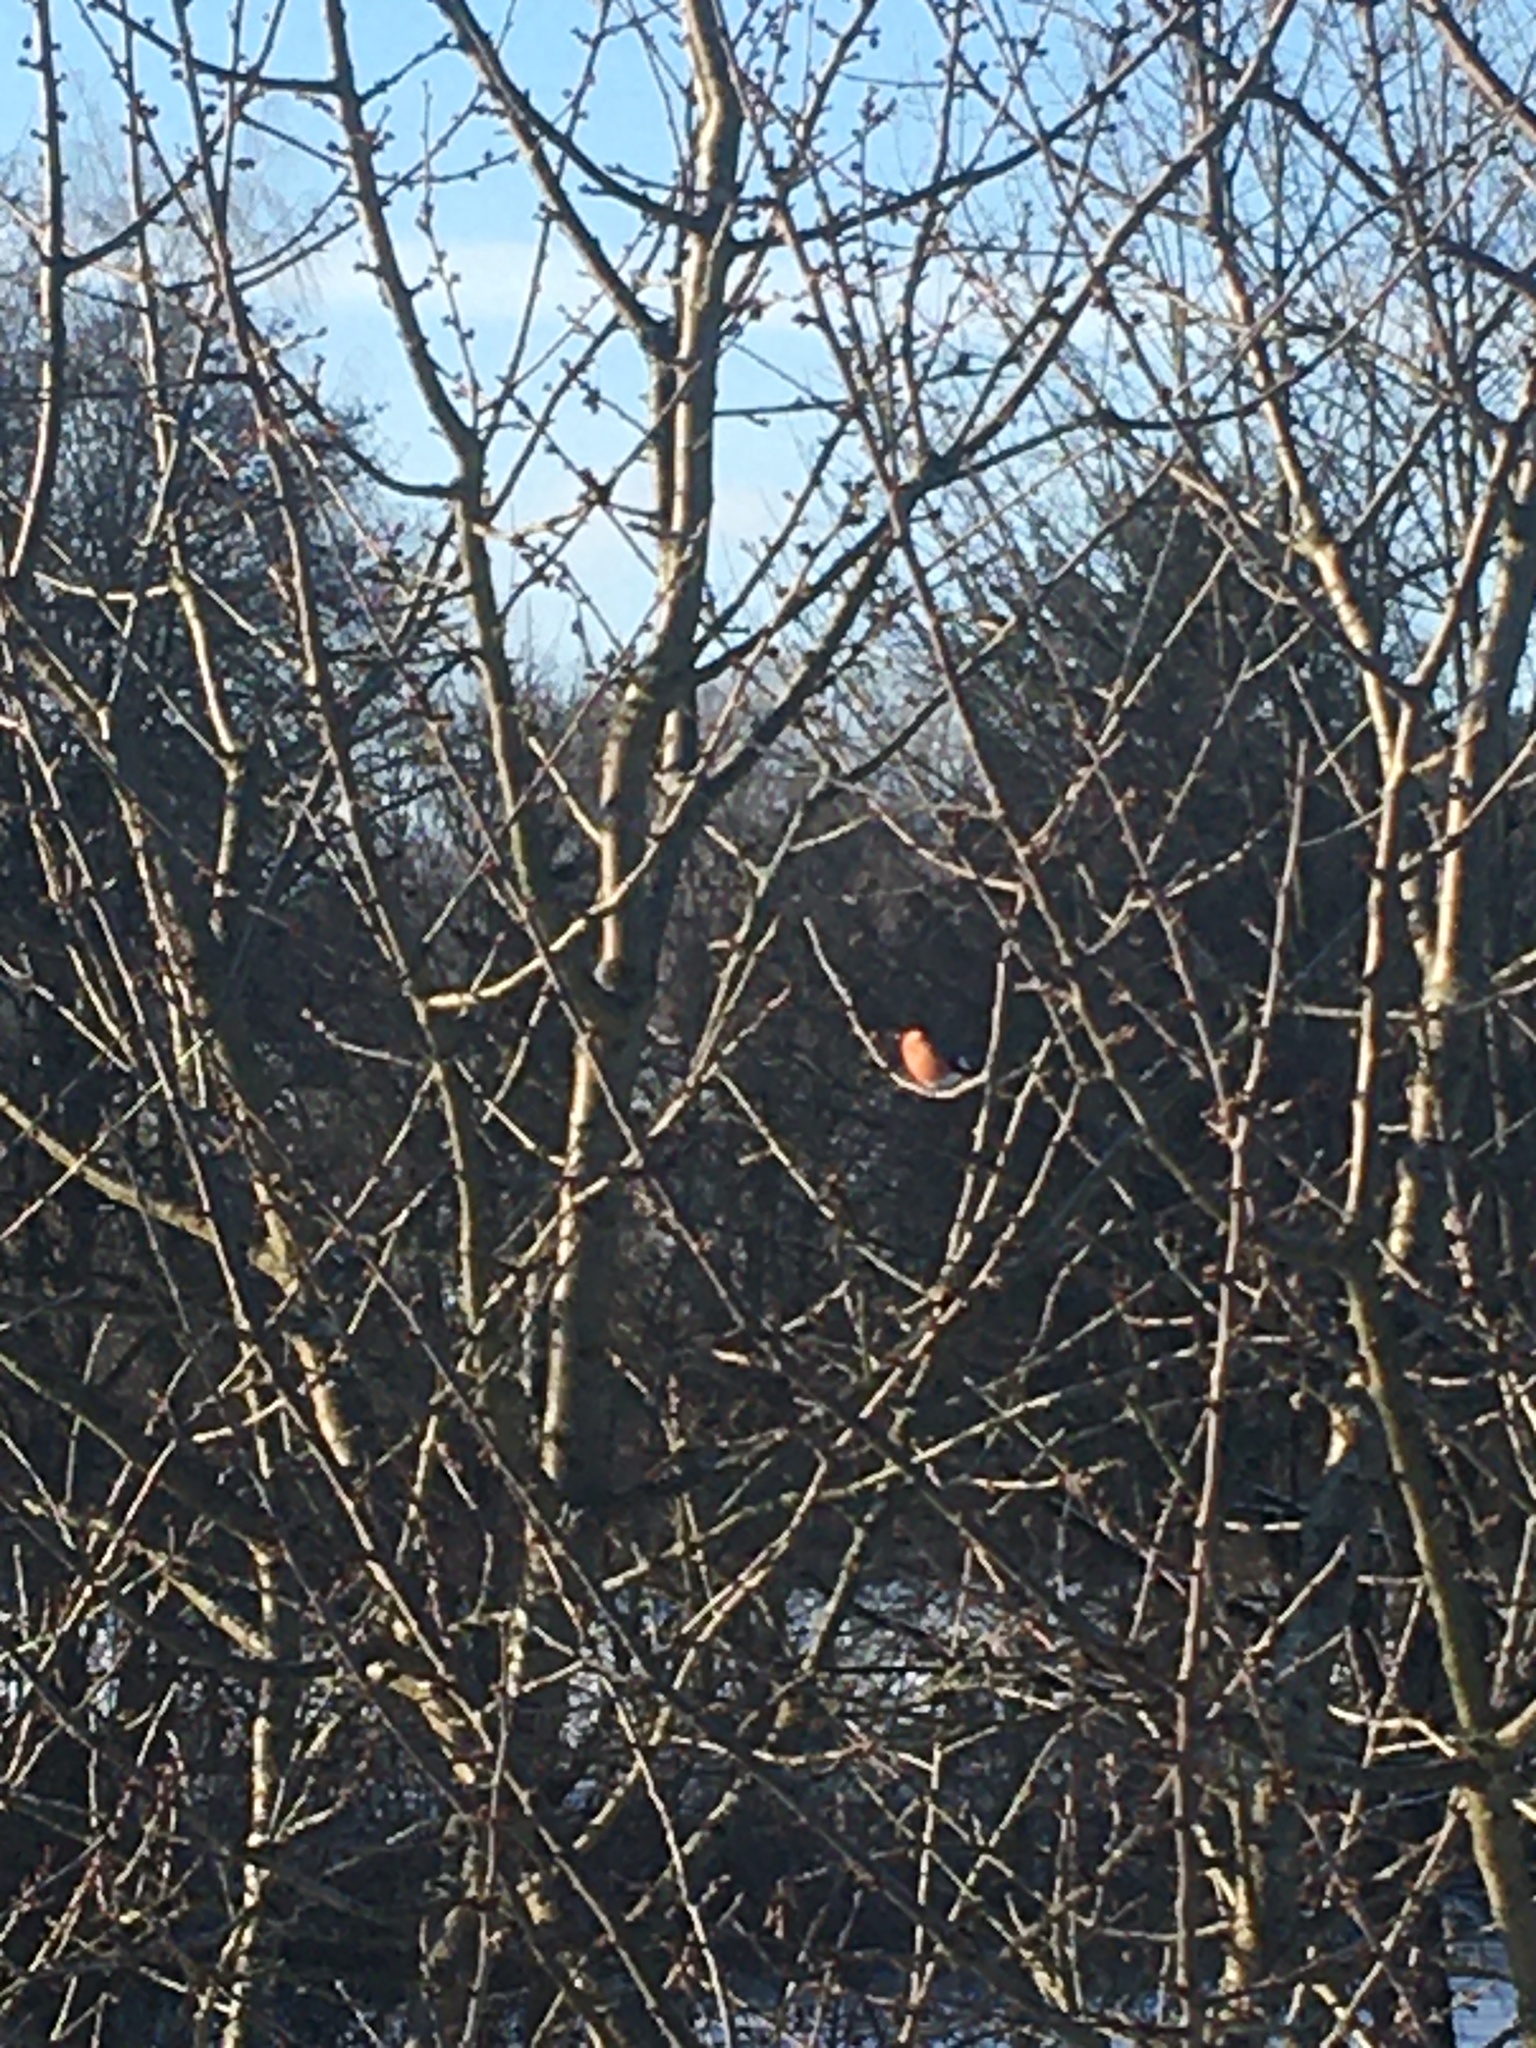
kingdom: Animalia
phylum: Chordata
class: Aves
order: Passeriformes
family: Fringillidae
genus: Pyrrhula
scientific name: Pyrrhula pyrrhula
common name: Eurasian bullfinch
